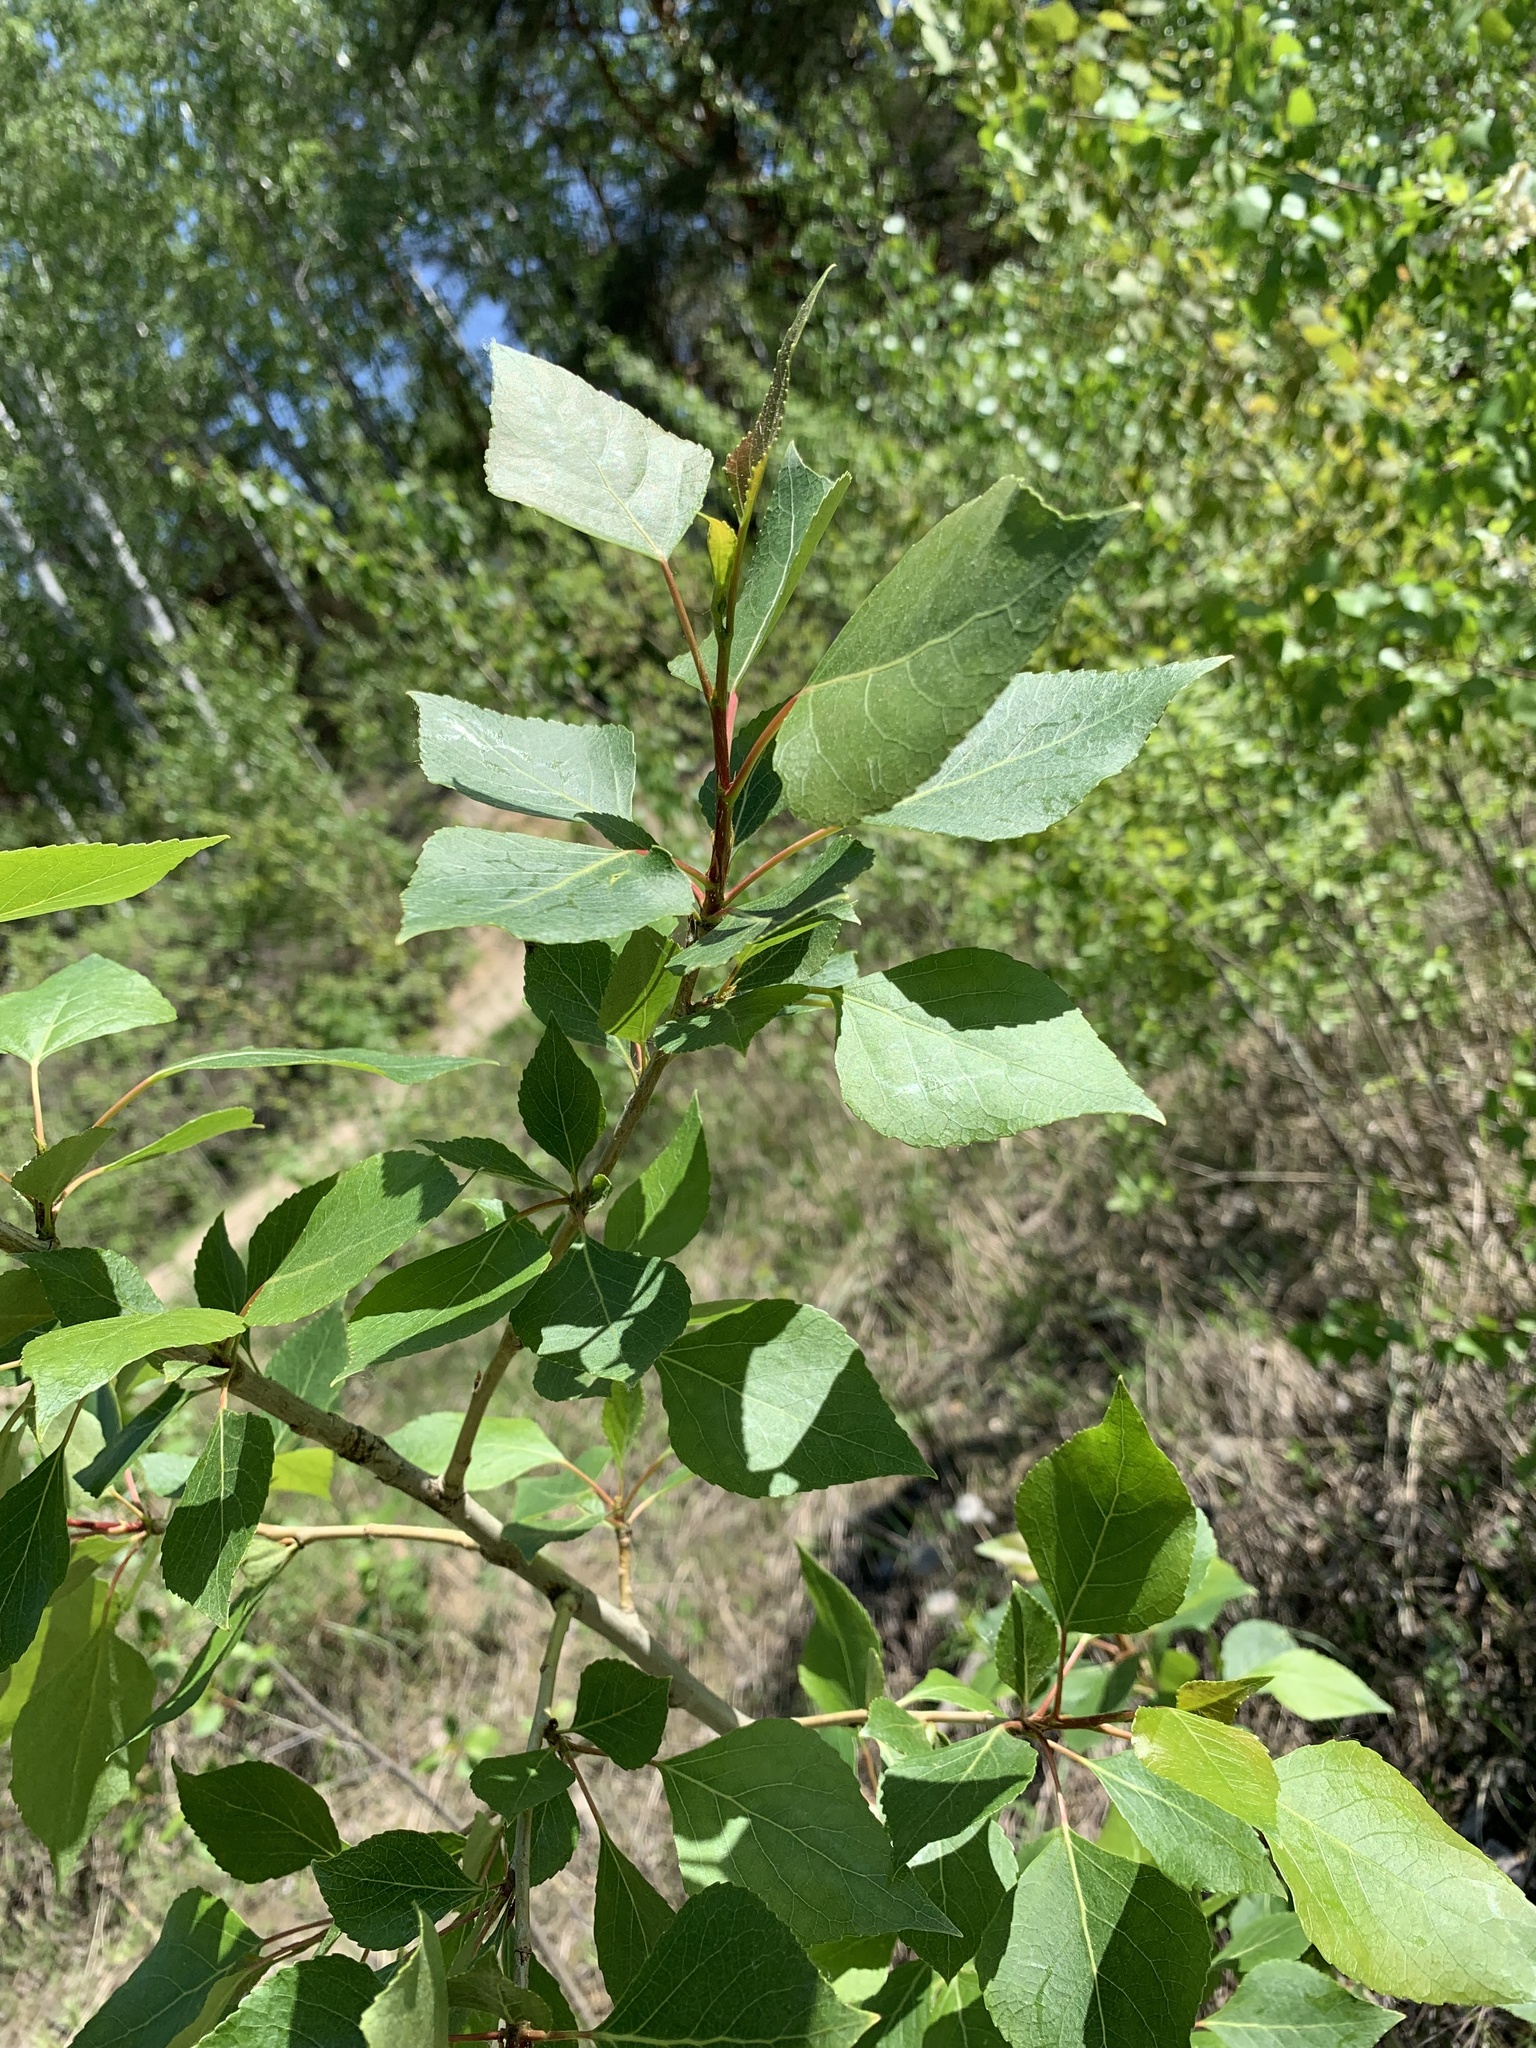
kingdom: Plantae
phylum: Tracheophyta
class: Magnoliopsida
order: Malpighiales
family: Salicaceae
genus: Populus
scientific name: Populus sibirica
